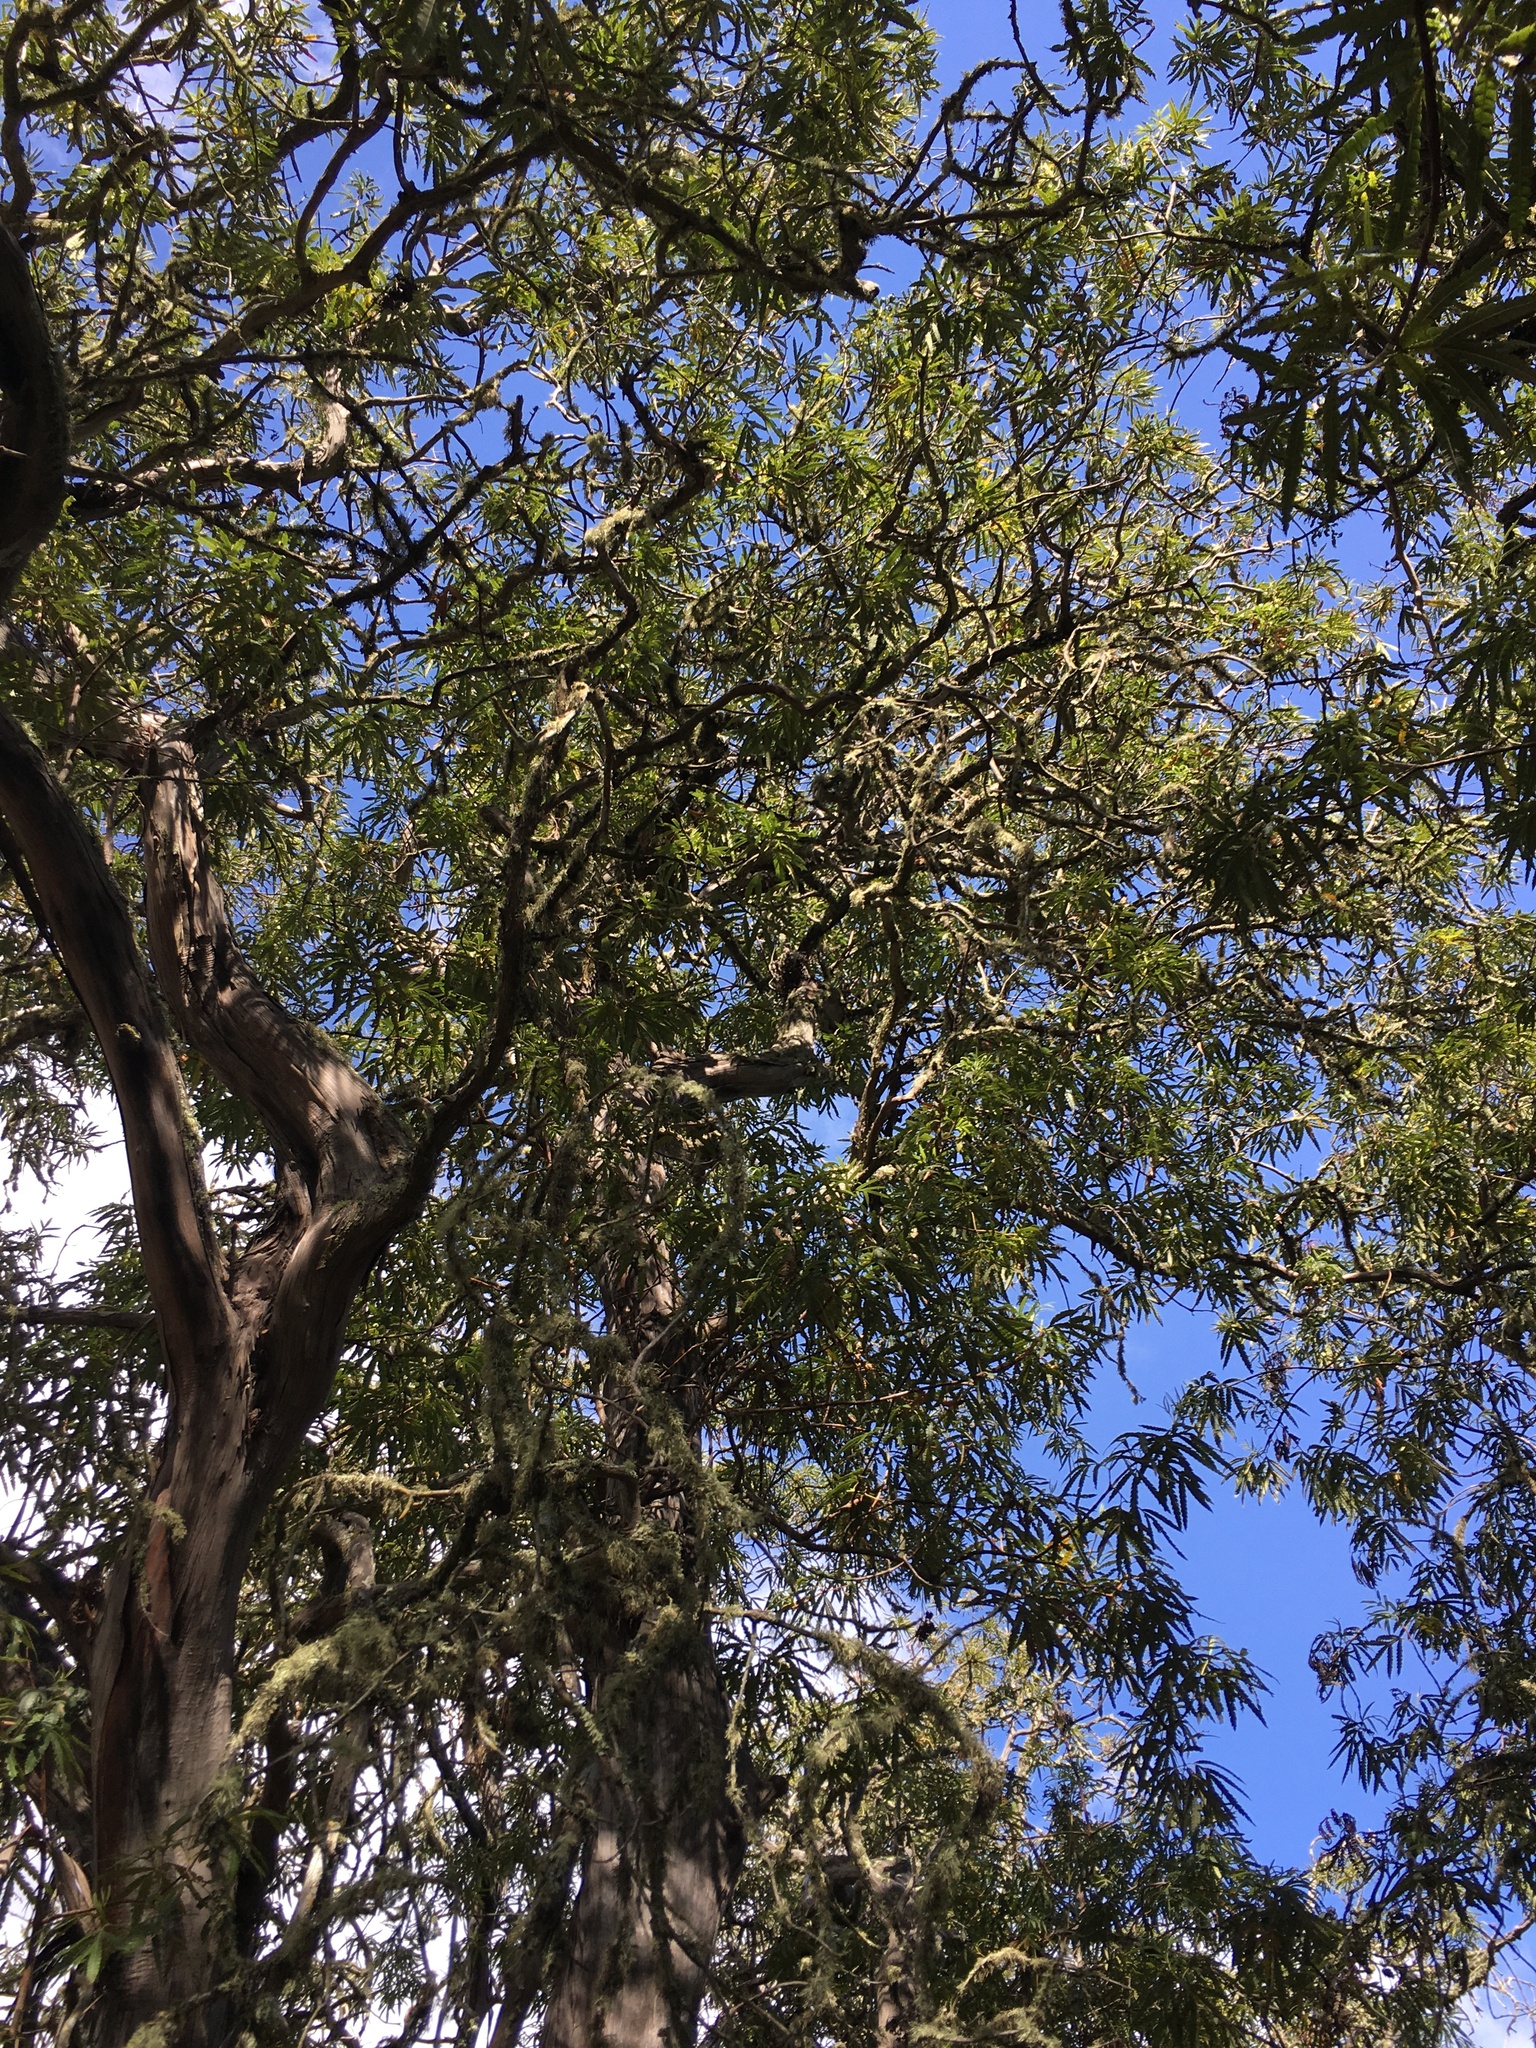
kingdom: Plantae
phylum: Tracheophyta
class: Magnoliopsida
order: Rosales
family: Rosaceae
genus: Lyonothamnus
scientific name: Lyonothamnus floribundus
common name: Catalina ironwood
